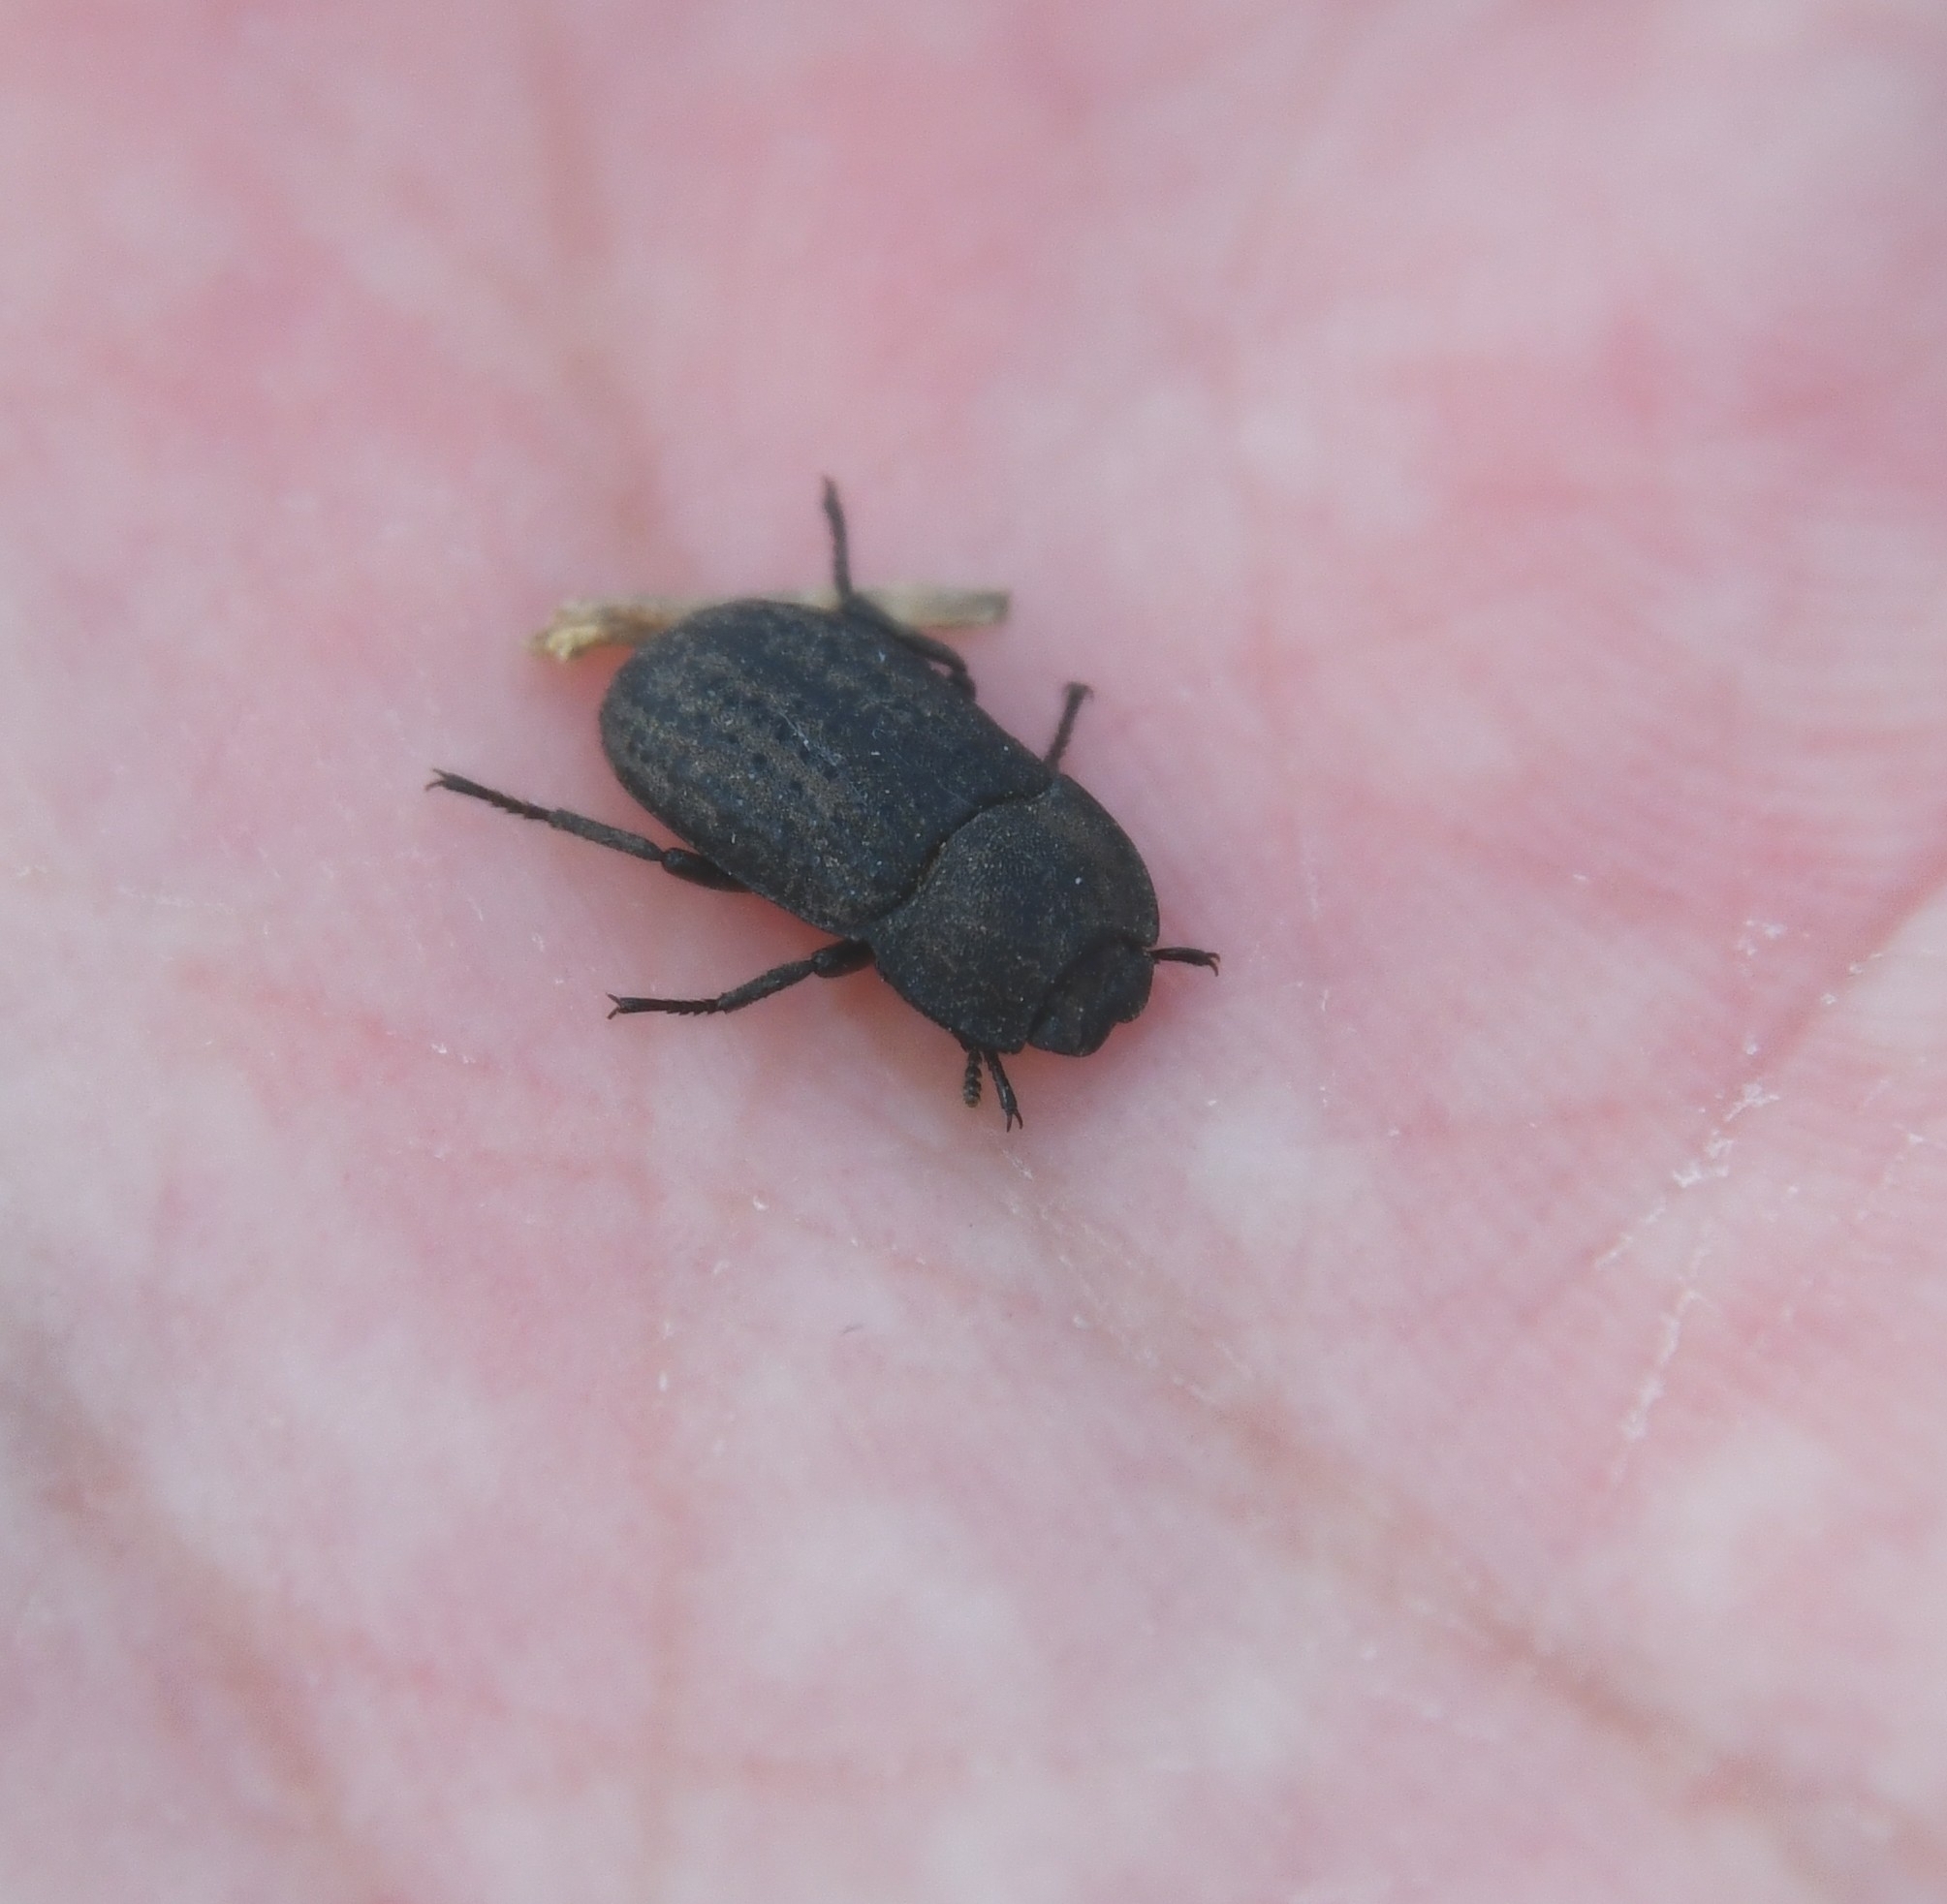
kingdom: Animalia
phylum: Arthropoda
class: Insecta
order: Coleoptera
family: Tenebrionidae
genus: Opatrum
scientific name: Opatrum sabulosum
